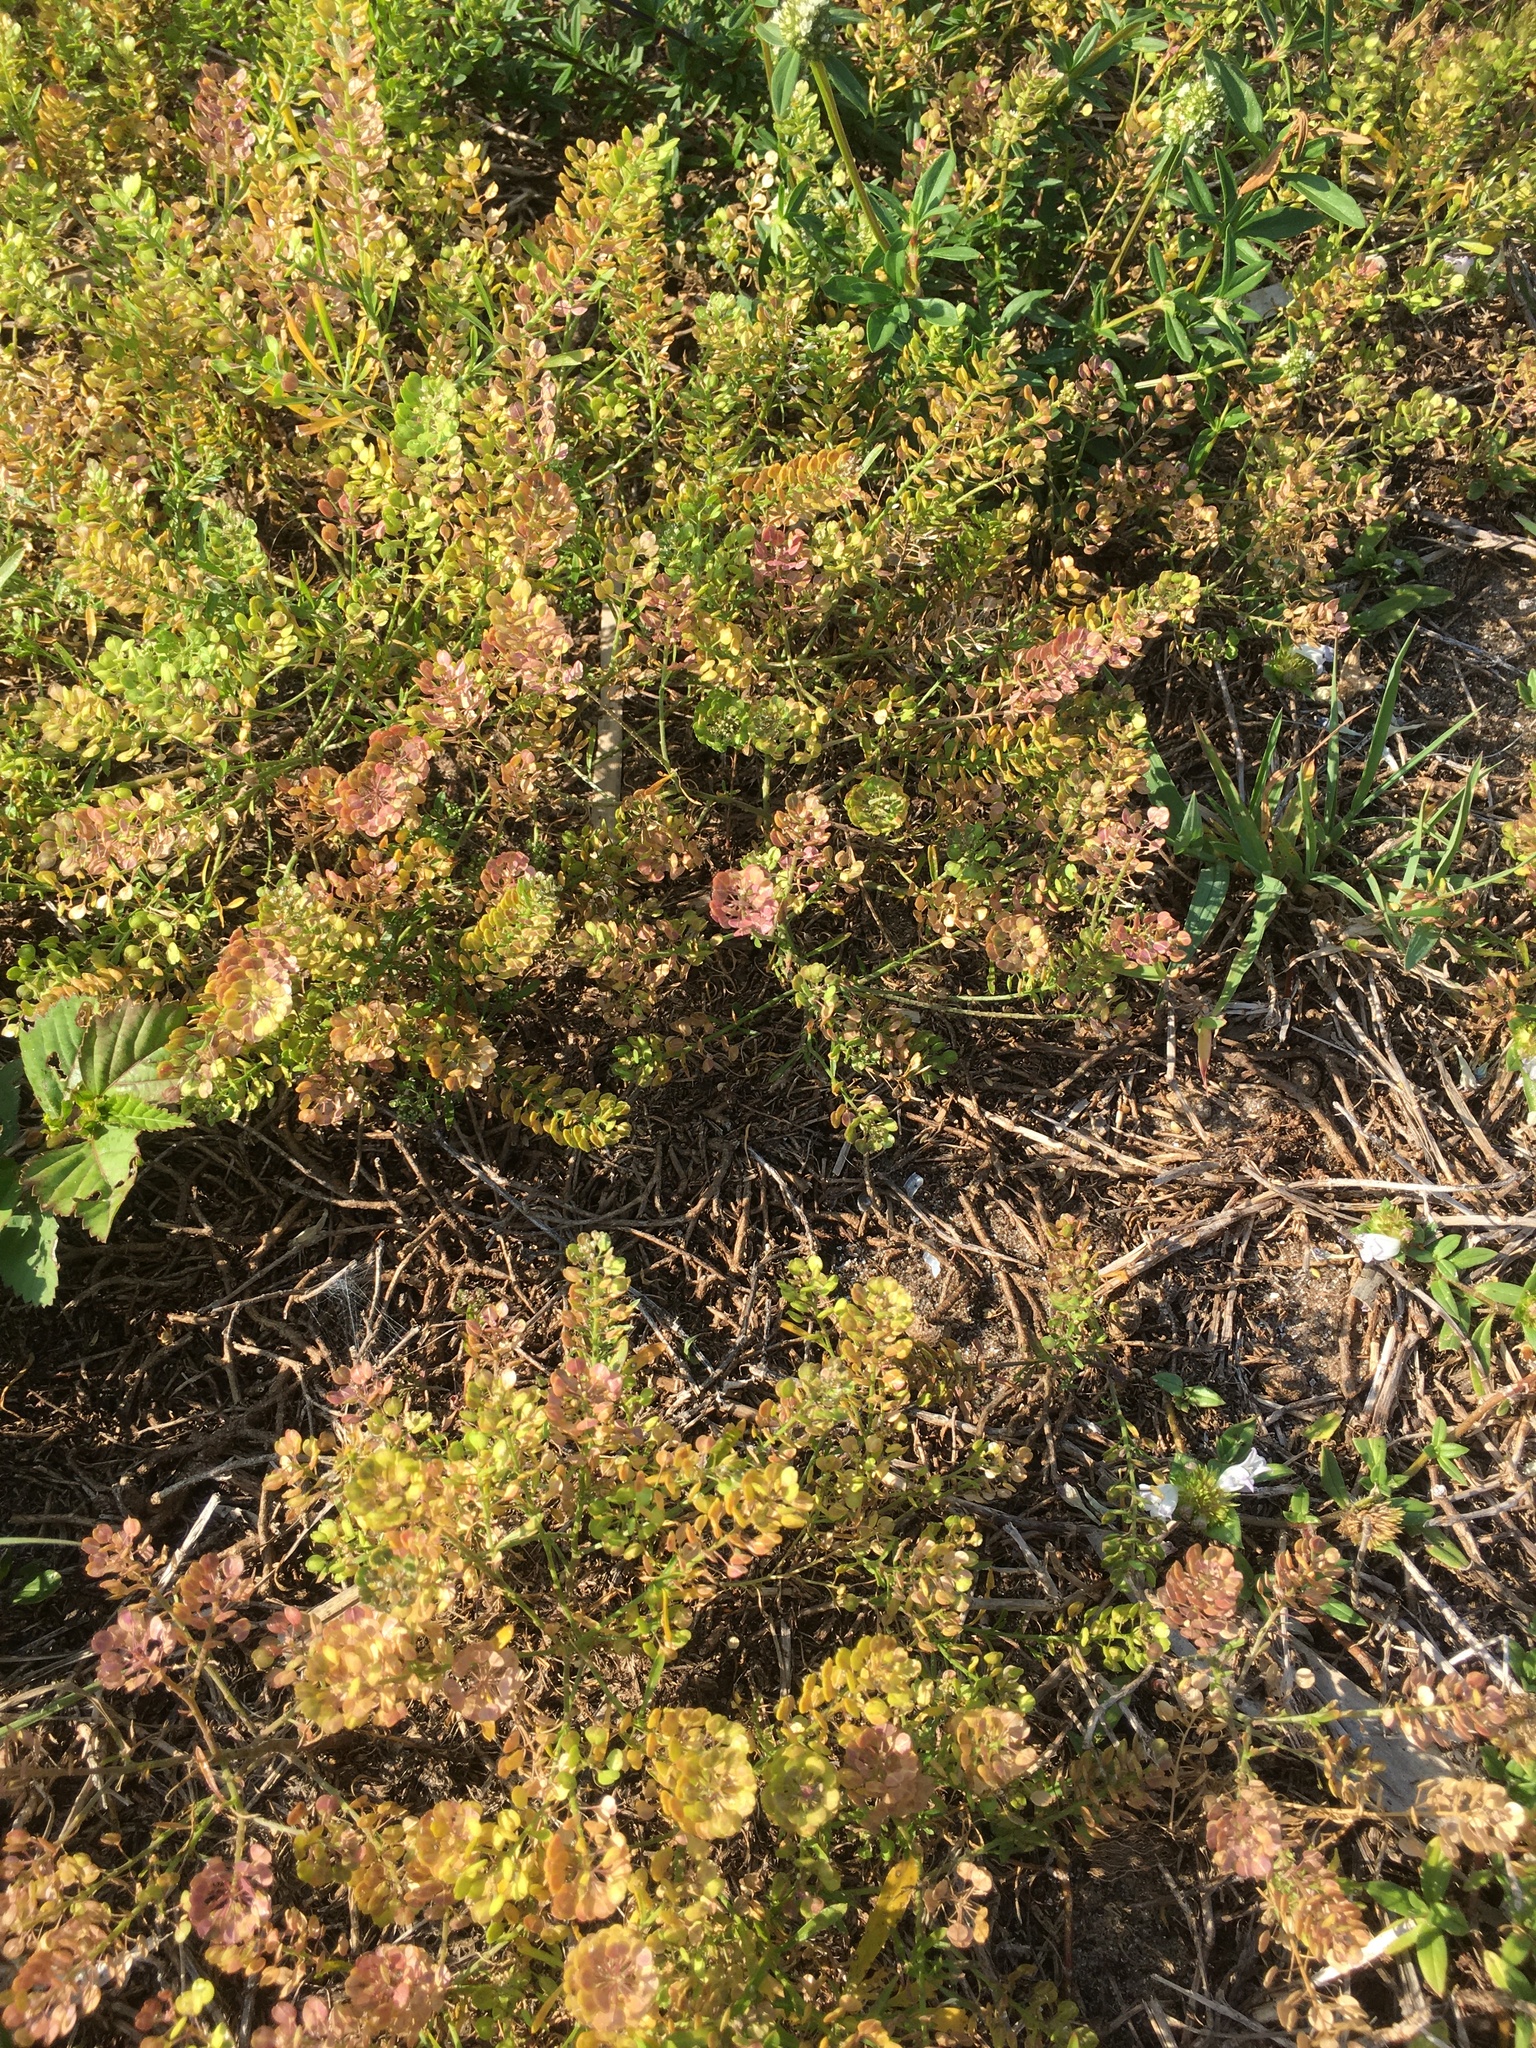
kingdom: Plantae
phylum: Tracheophyta
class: Magnoliopsida
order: Brassicales
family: Brassicaceae
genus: Lepidium
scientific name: Lepidium virginicum
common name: Least pepperwort
